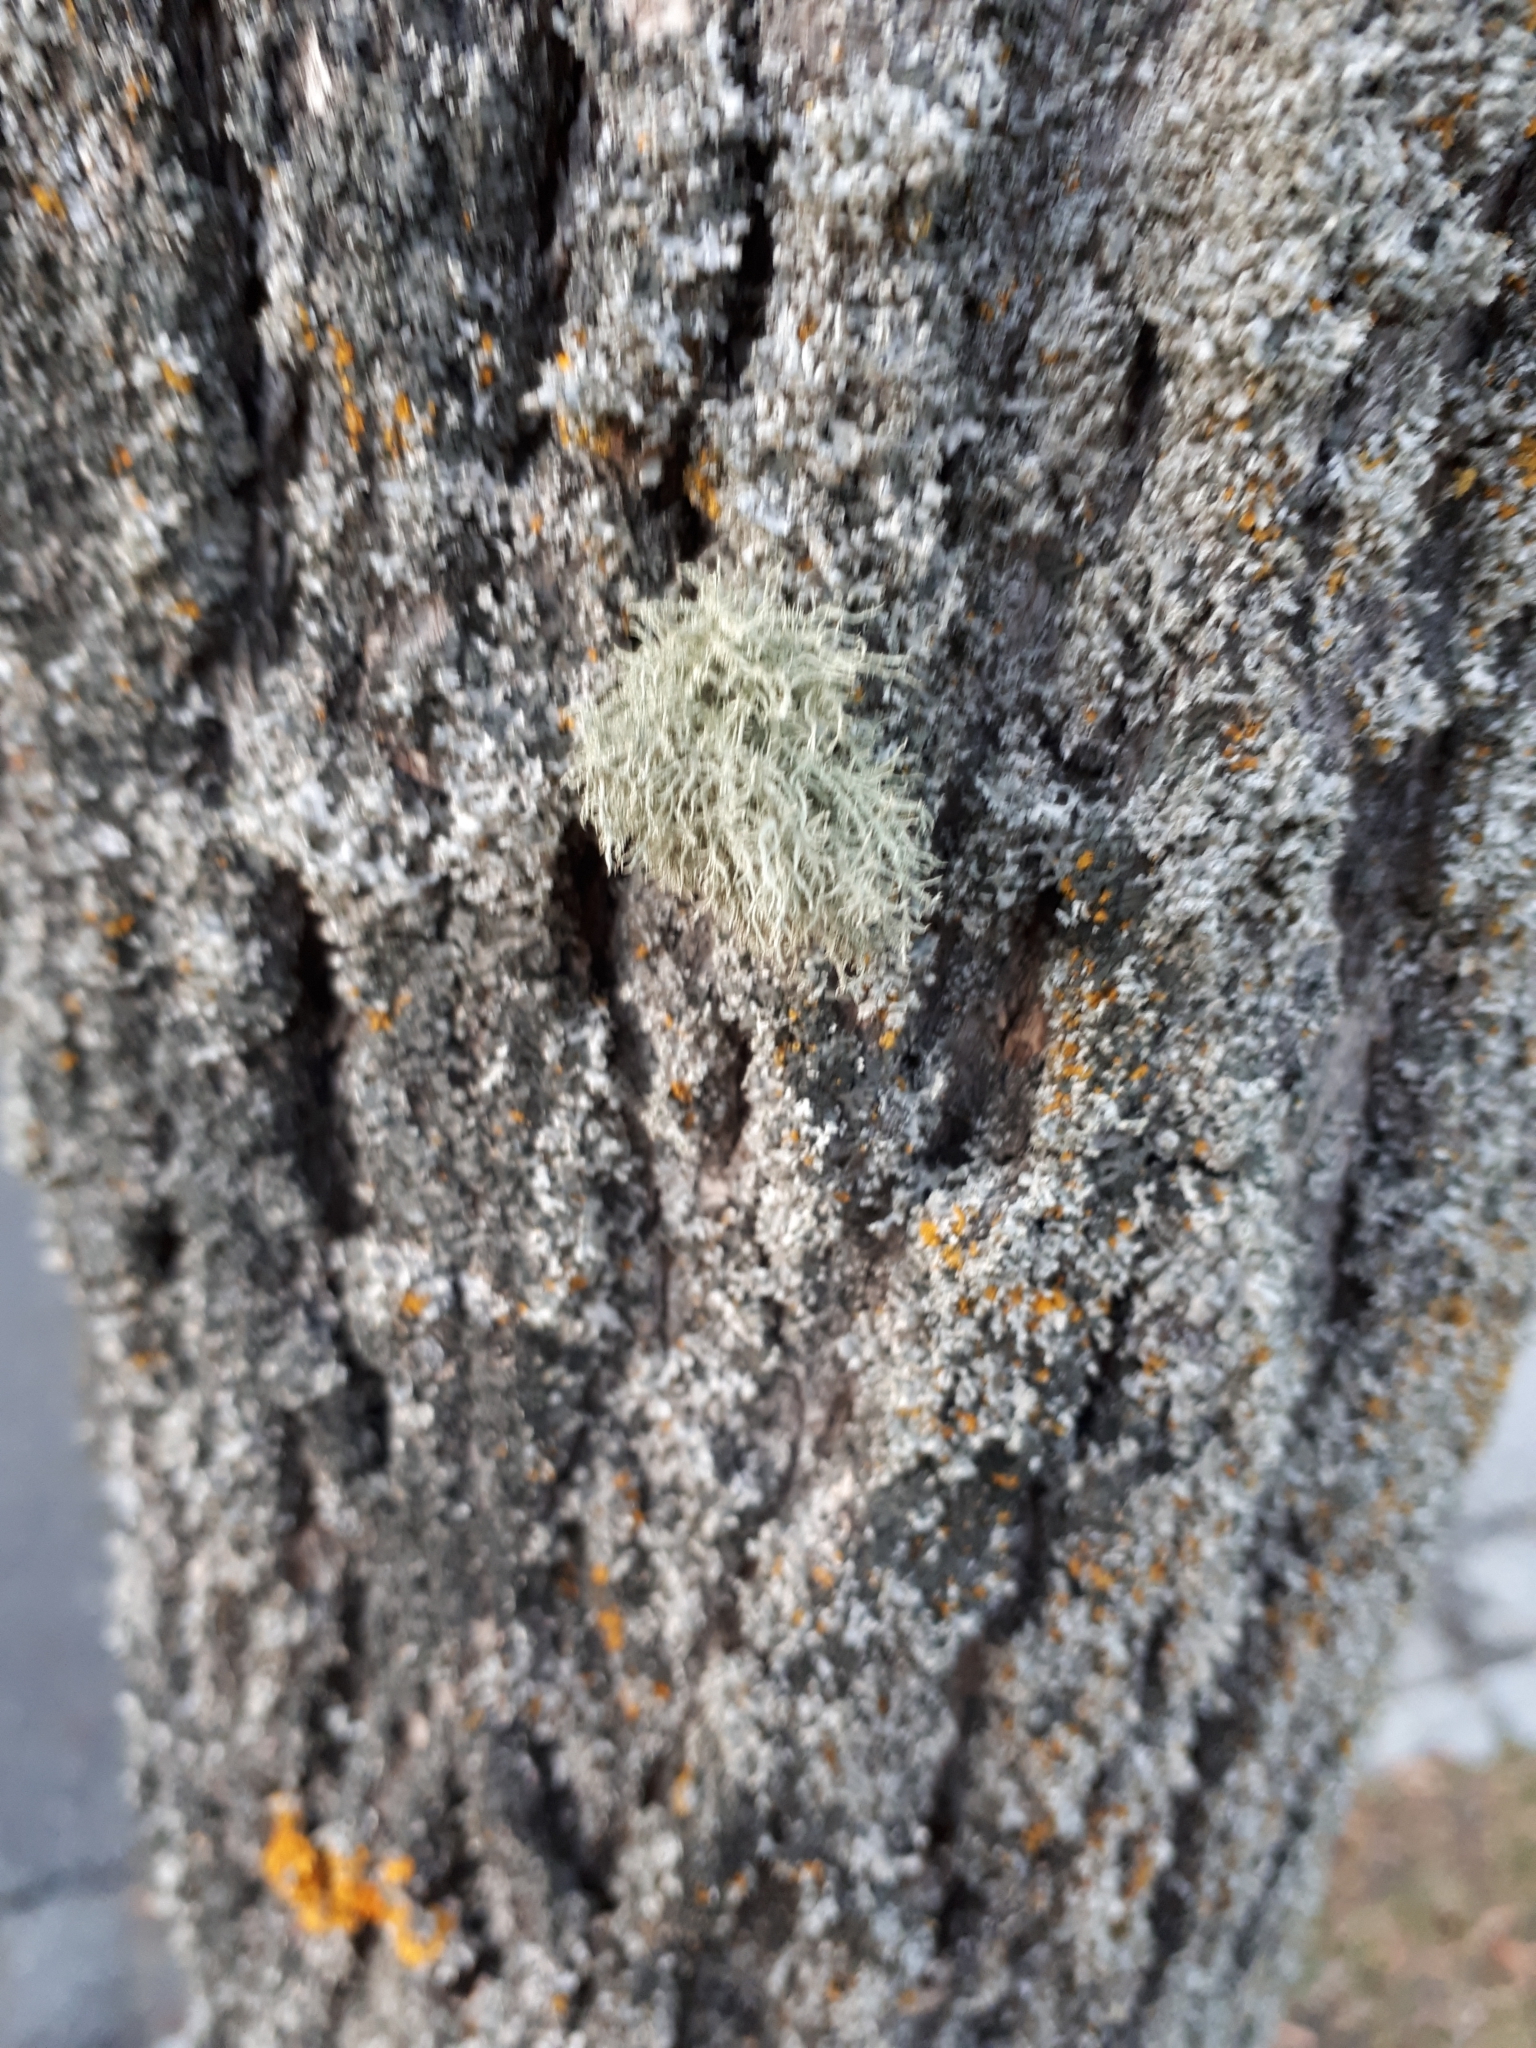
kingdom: Fungi
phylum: Ascomycota
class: Lecanoromycetes
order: Lecanorales
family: Parmeliaceae
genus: Usnea
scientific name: Usnea
